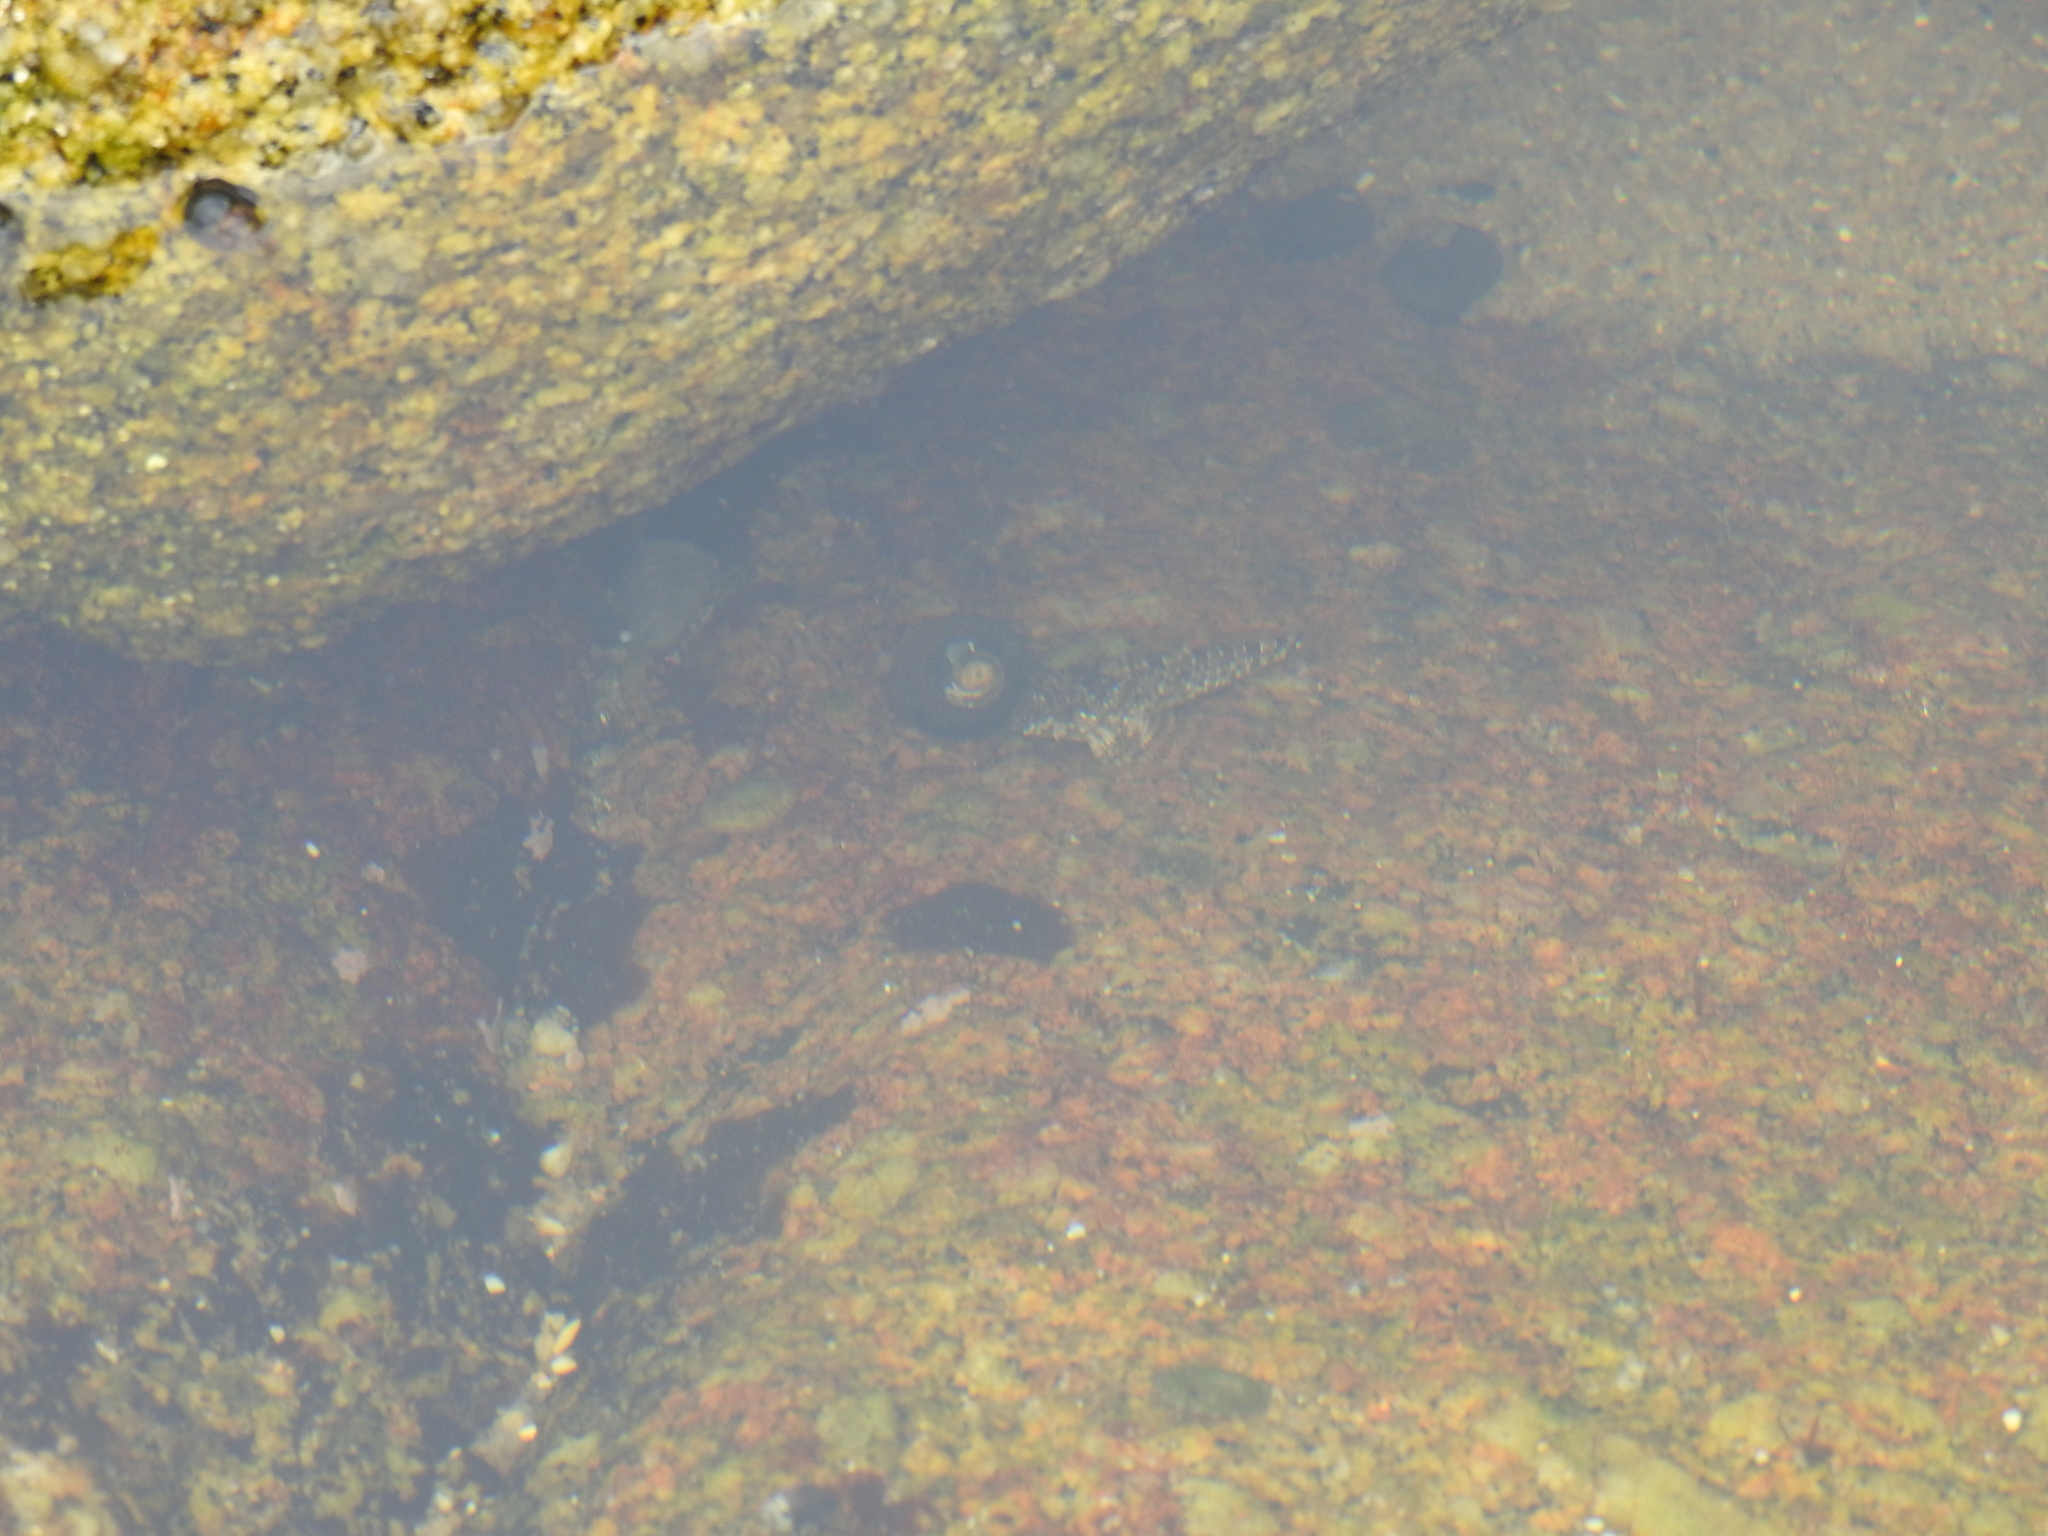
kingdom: Animalia
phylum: Chordata
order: Scorpaeniformes
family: Cottidae
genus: Clinocottus
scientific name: Clinocottus analis
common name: Woolly sculpin
